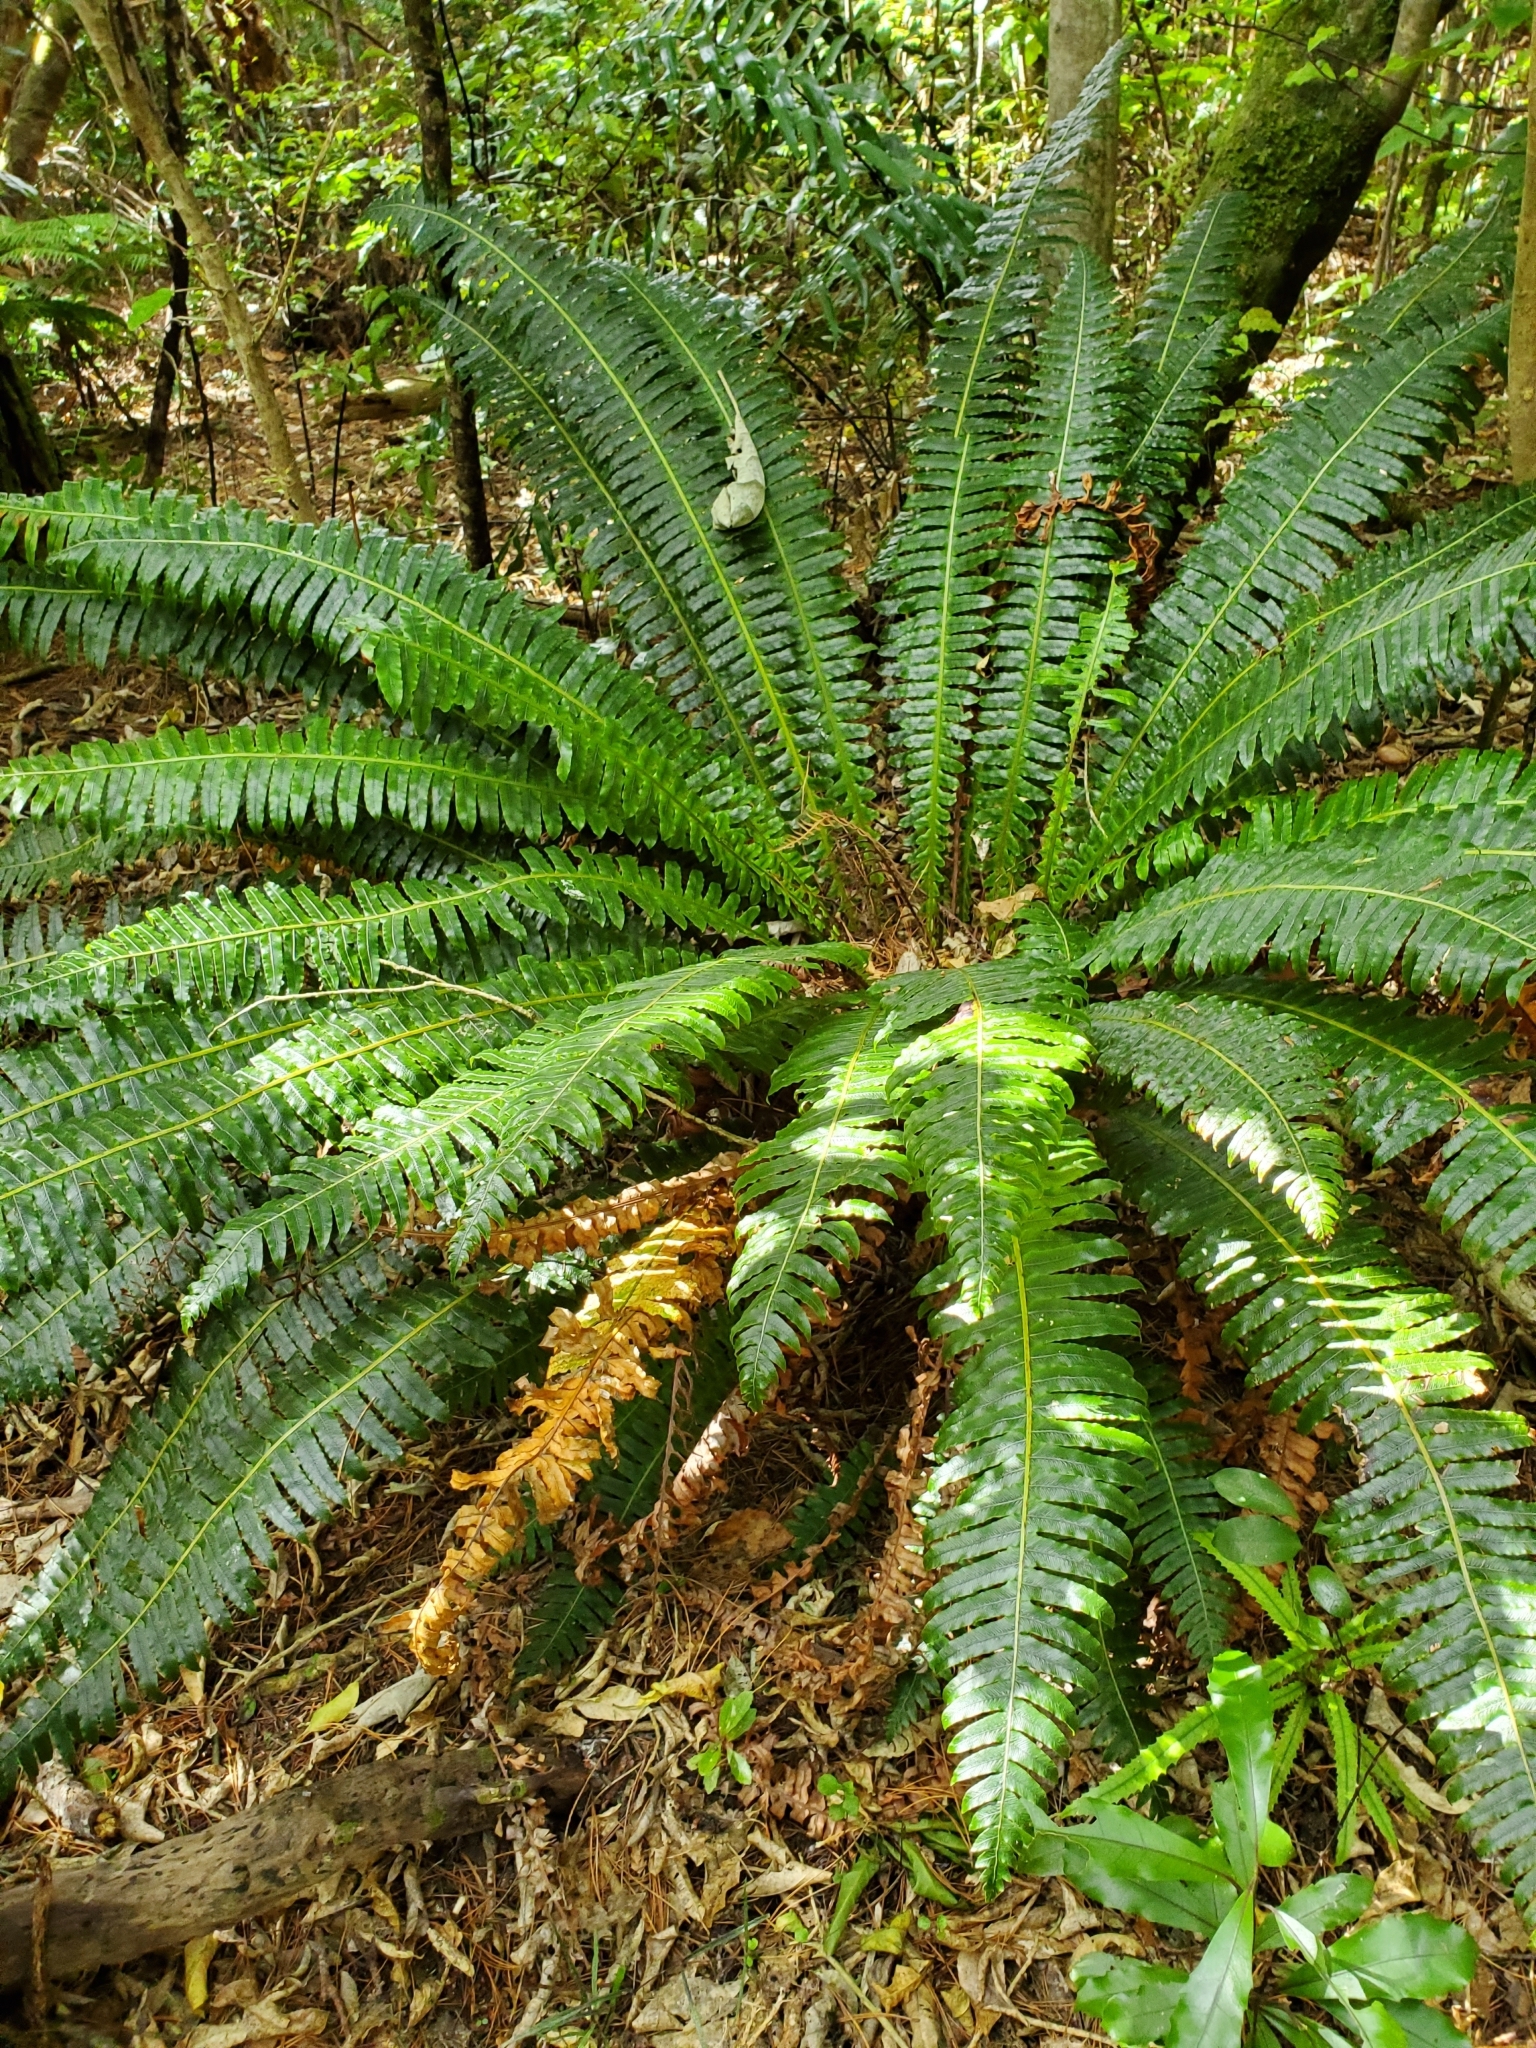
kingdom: Plantae
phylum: Tracheophyta
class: Polypodiopsida
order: Polypodiales
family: Blechnaceae
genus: Lomaria
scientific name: Lomaria discolor
